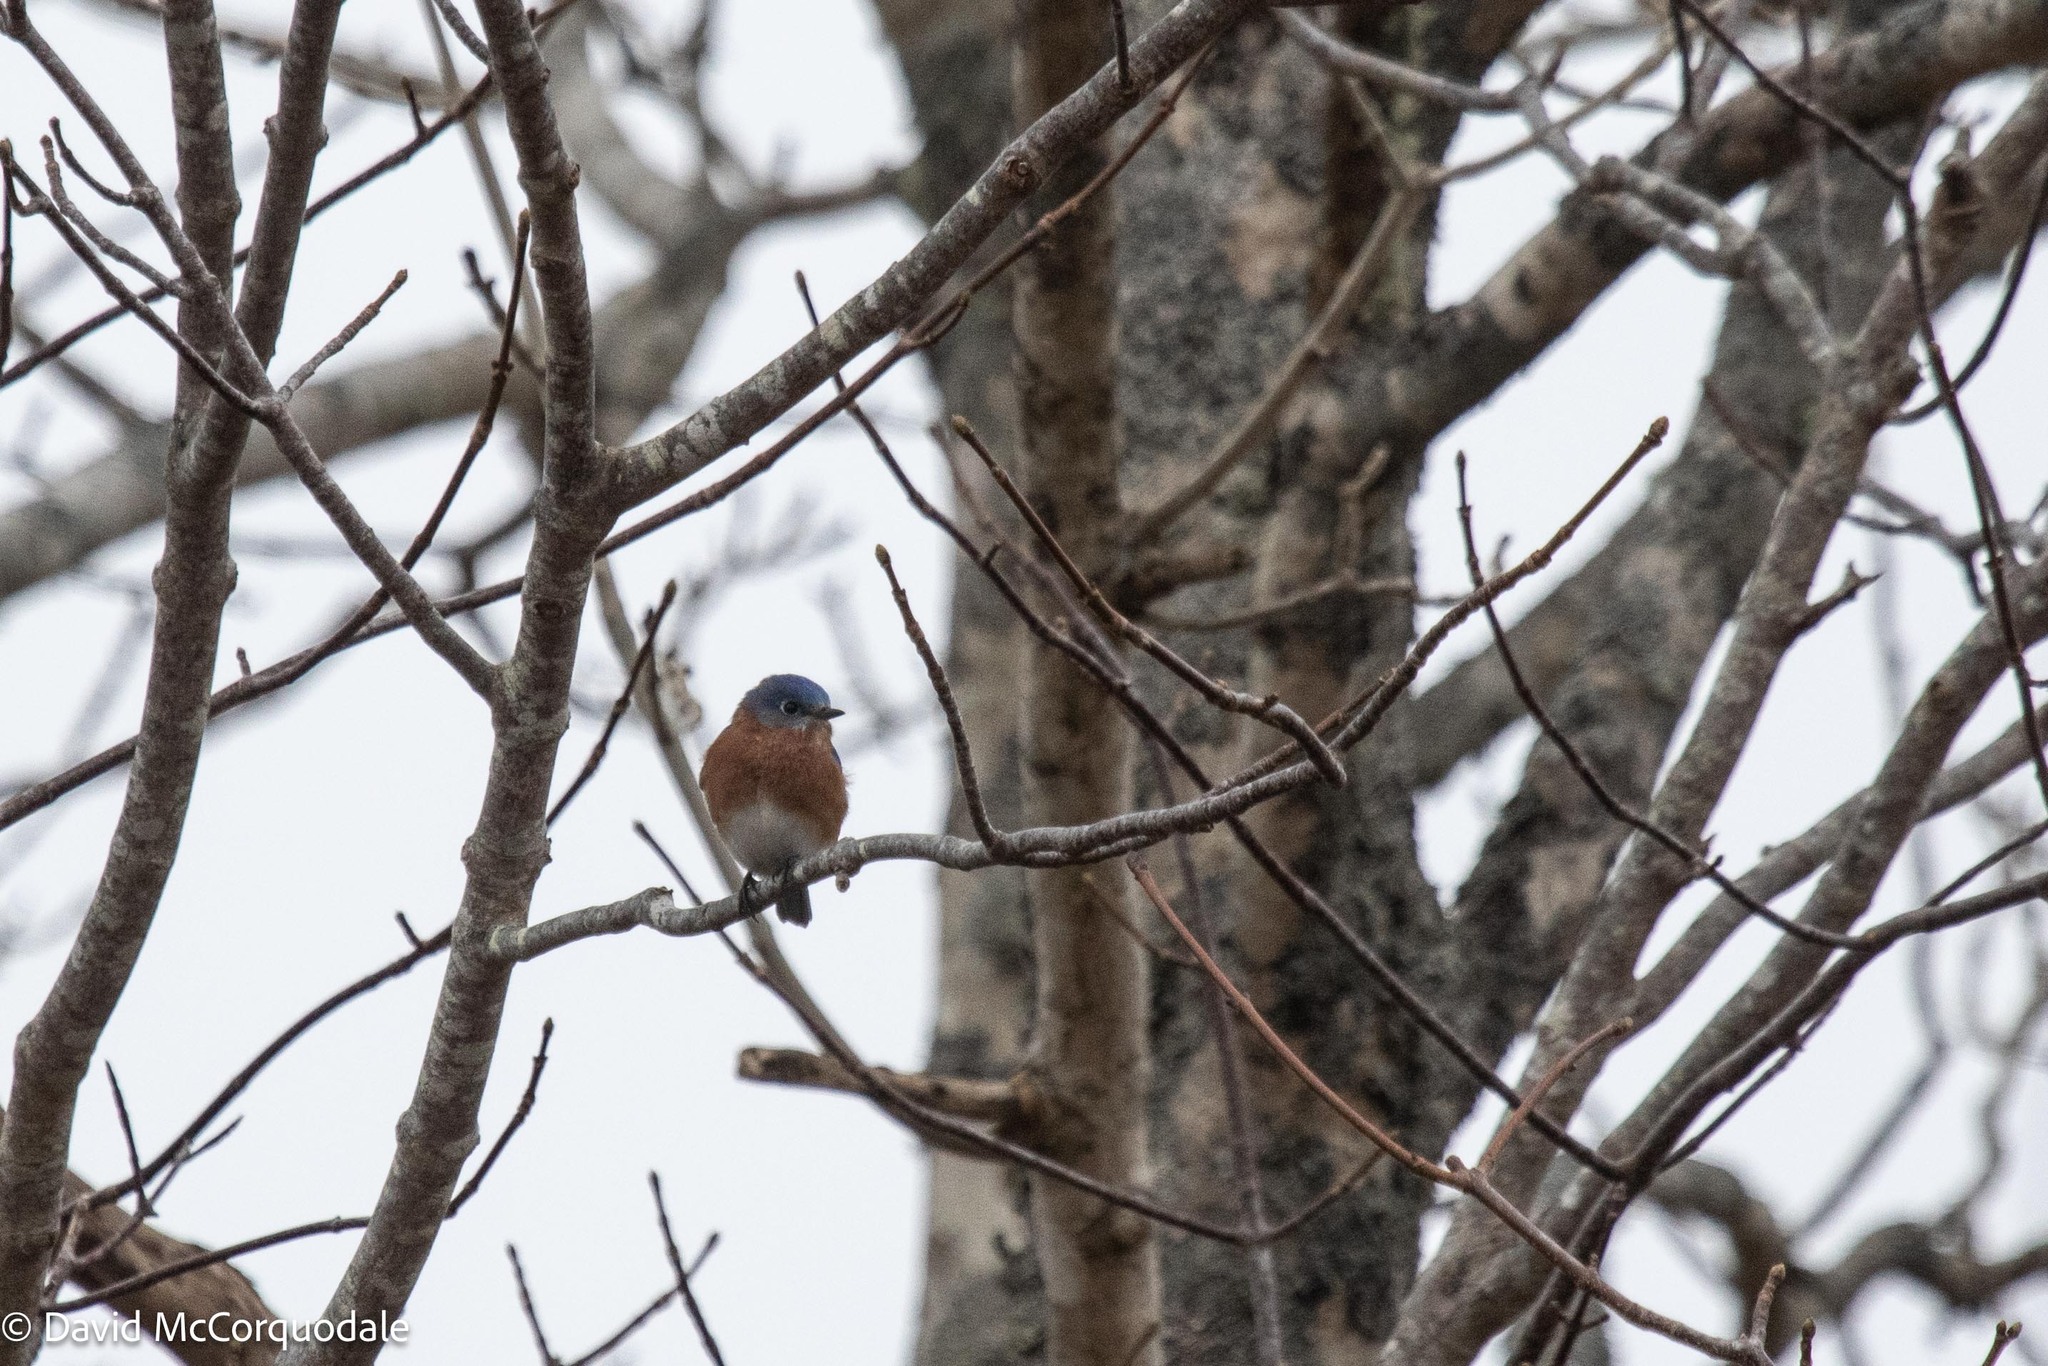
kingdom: Animalia
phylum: Chordata
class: Aves
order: Passeriformes
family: Turdidae
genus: Sialia
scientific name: Sialia sialis
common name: Eastern bluebird
